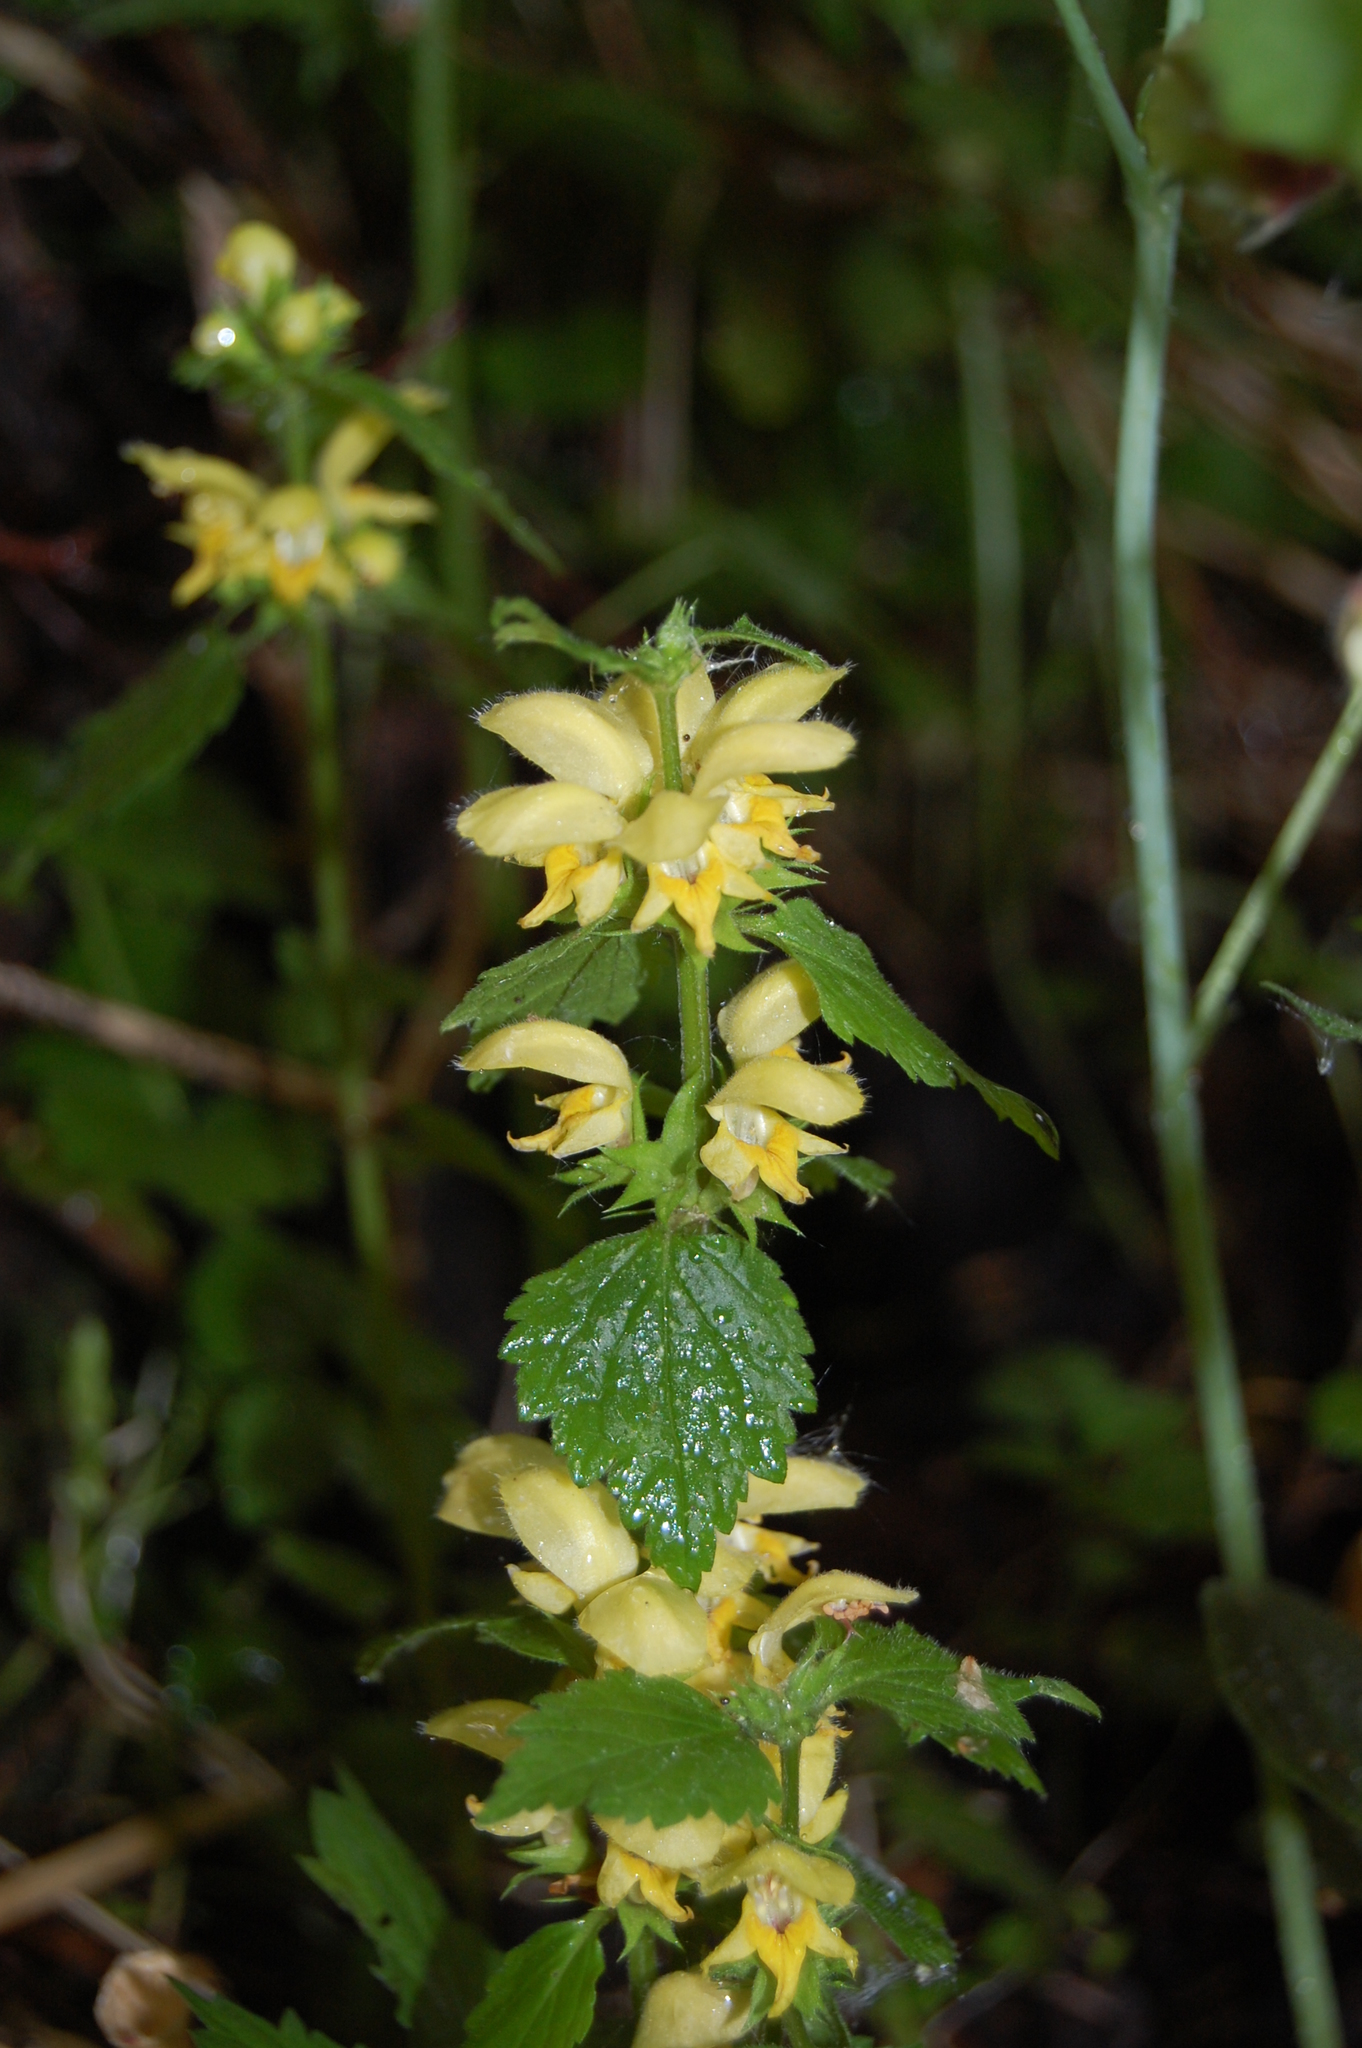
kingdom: Plantae
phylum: Tracheophyta
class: Magnoliopsida
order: Lamiales
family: Lamiaceae
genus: Lamium
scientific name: Lamium galeobdolon
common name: Yellow archangel
